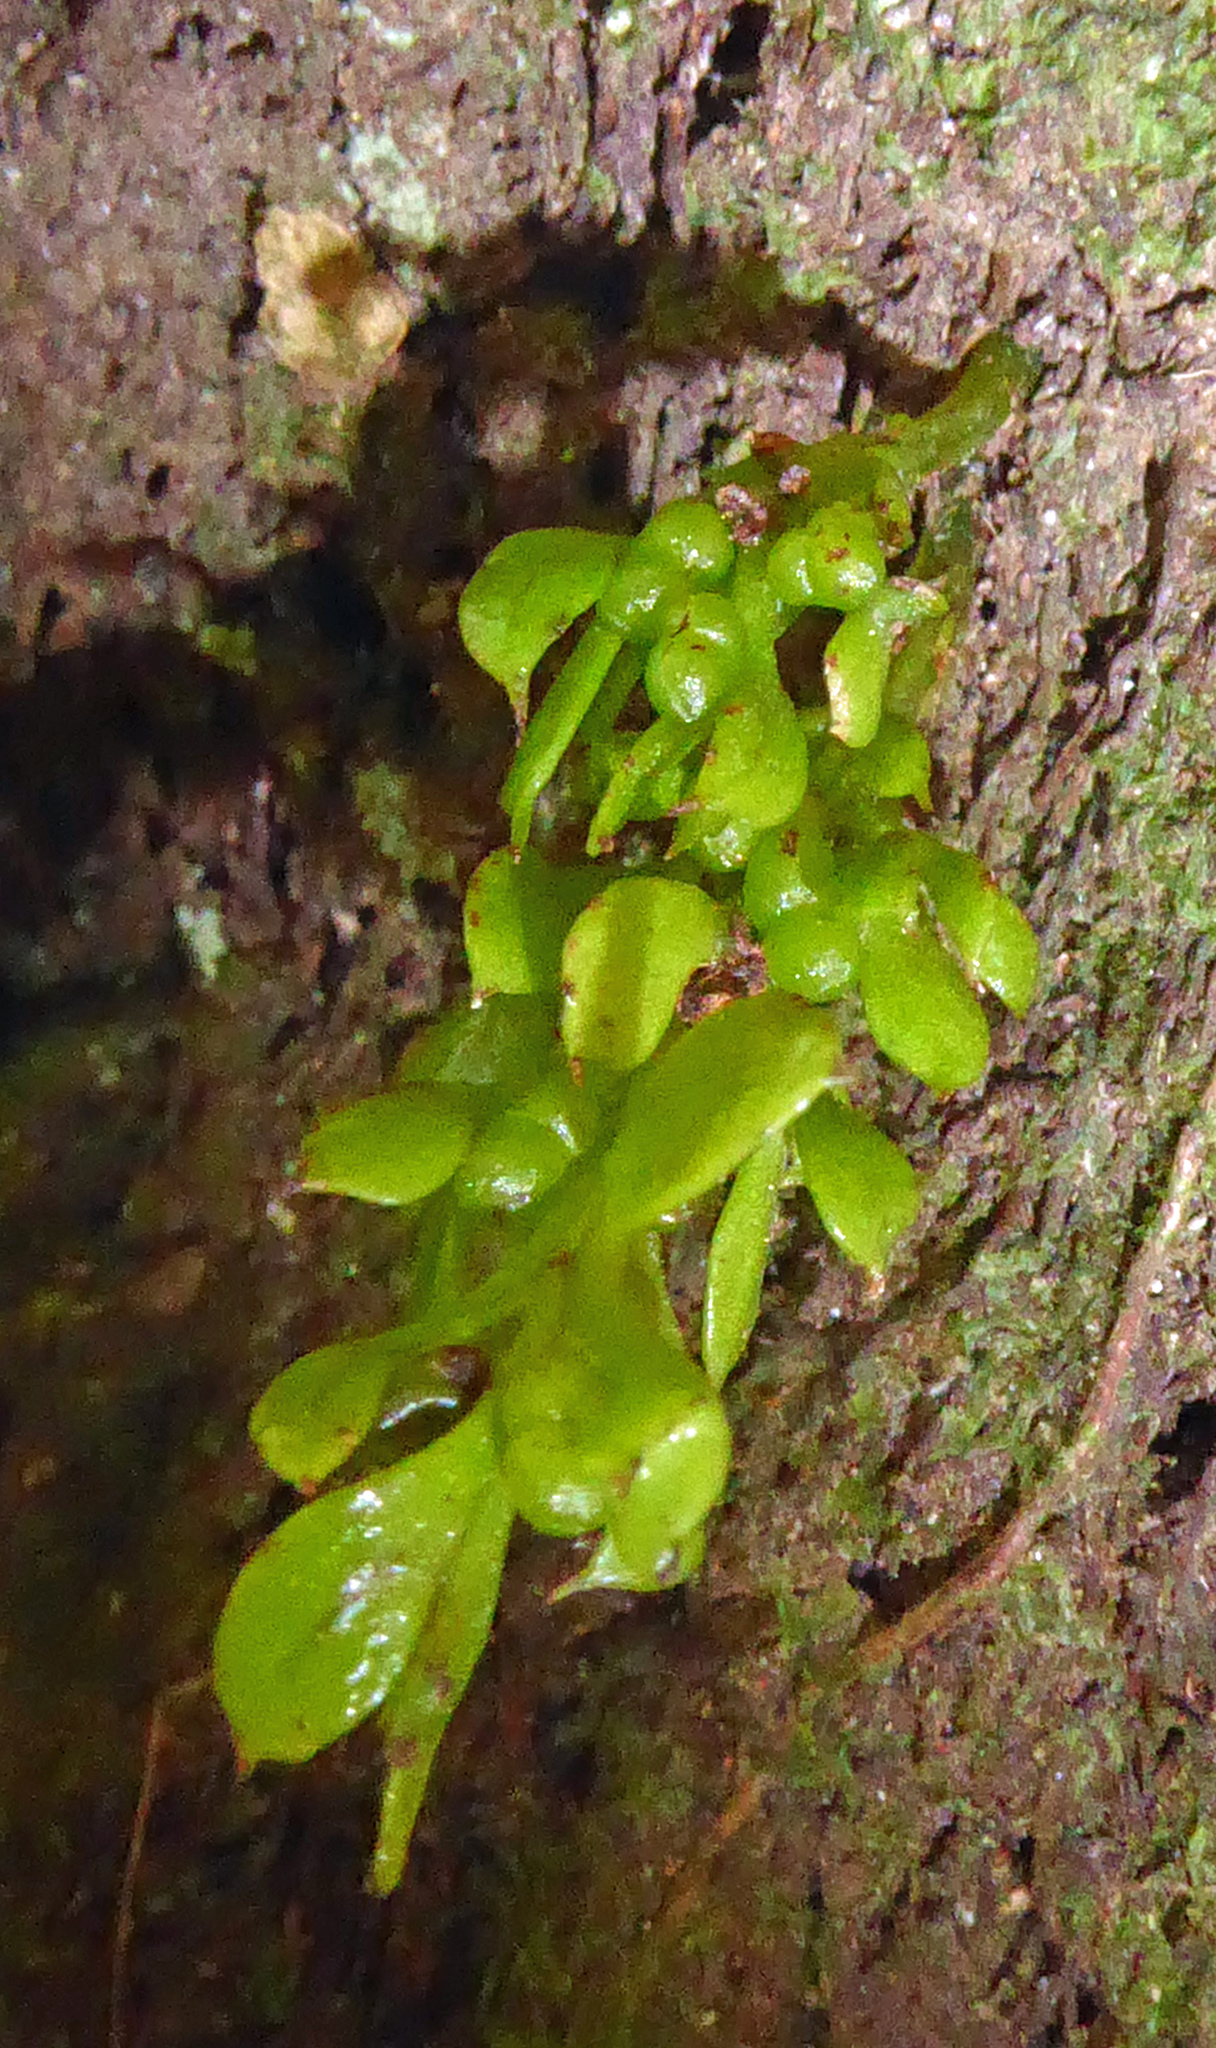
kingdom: Plantae
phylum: Tracheophyta
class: Polypodiopsida
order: Psilotales
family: Psilotaceae
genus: Tmesipteris
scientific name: Tmesipteris lanceolata
